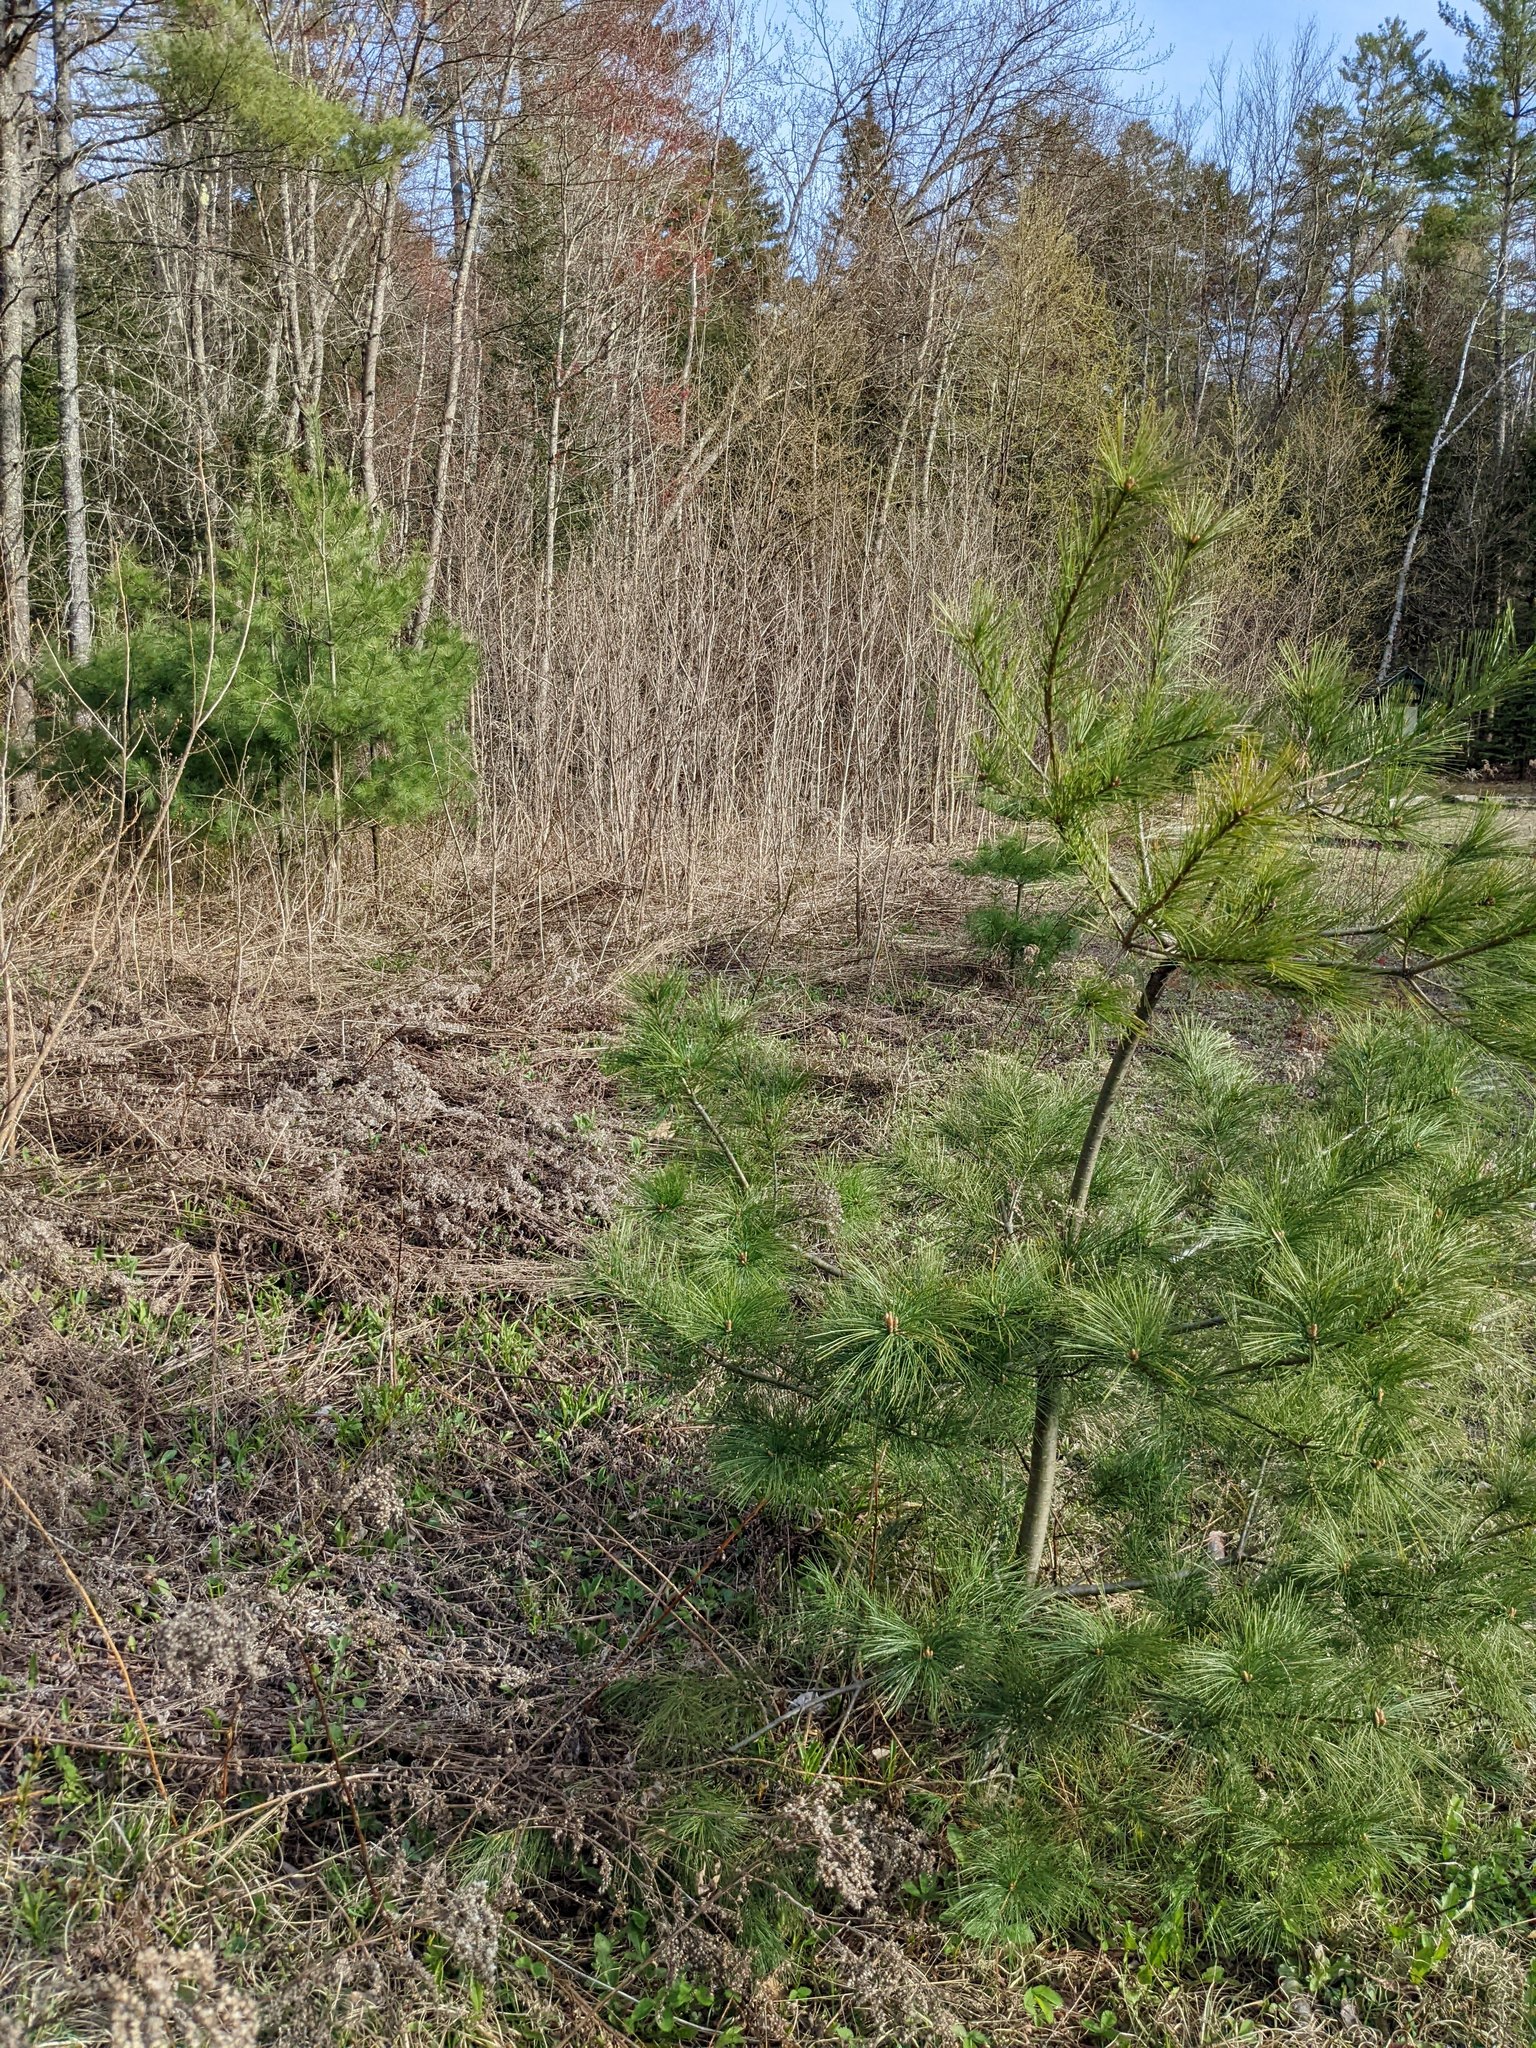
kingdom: Plantae
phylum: Tracheophyta
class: Pinopsida
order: Pinales
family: Pinaceae
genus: Pinus
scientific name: Pinus strobus
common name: Weymouth pine
